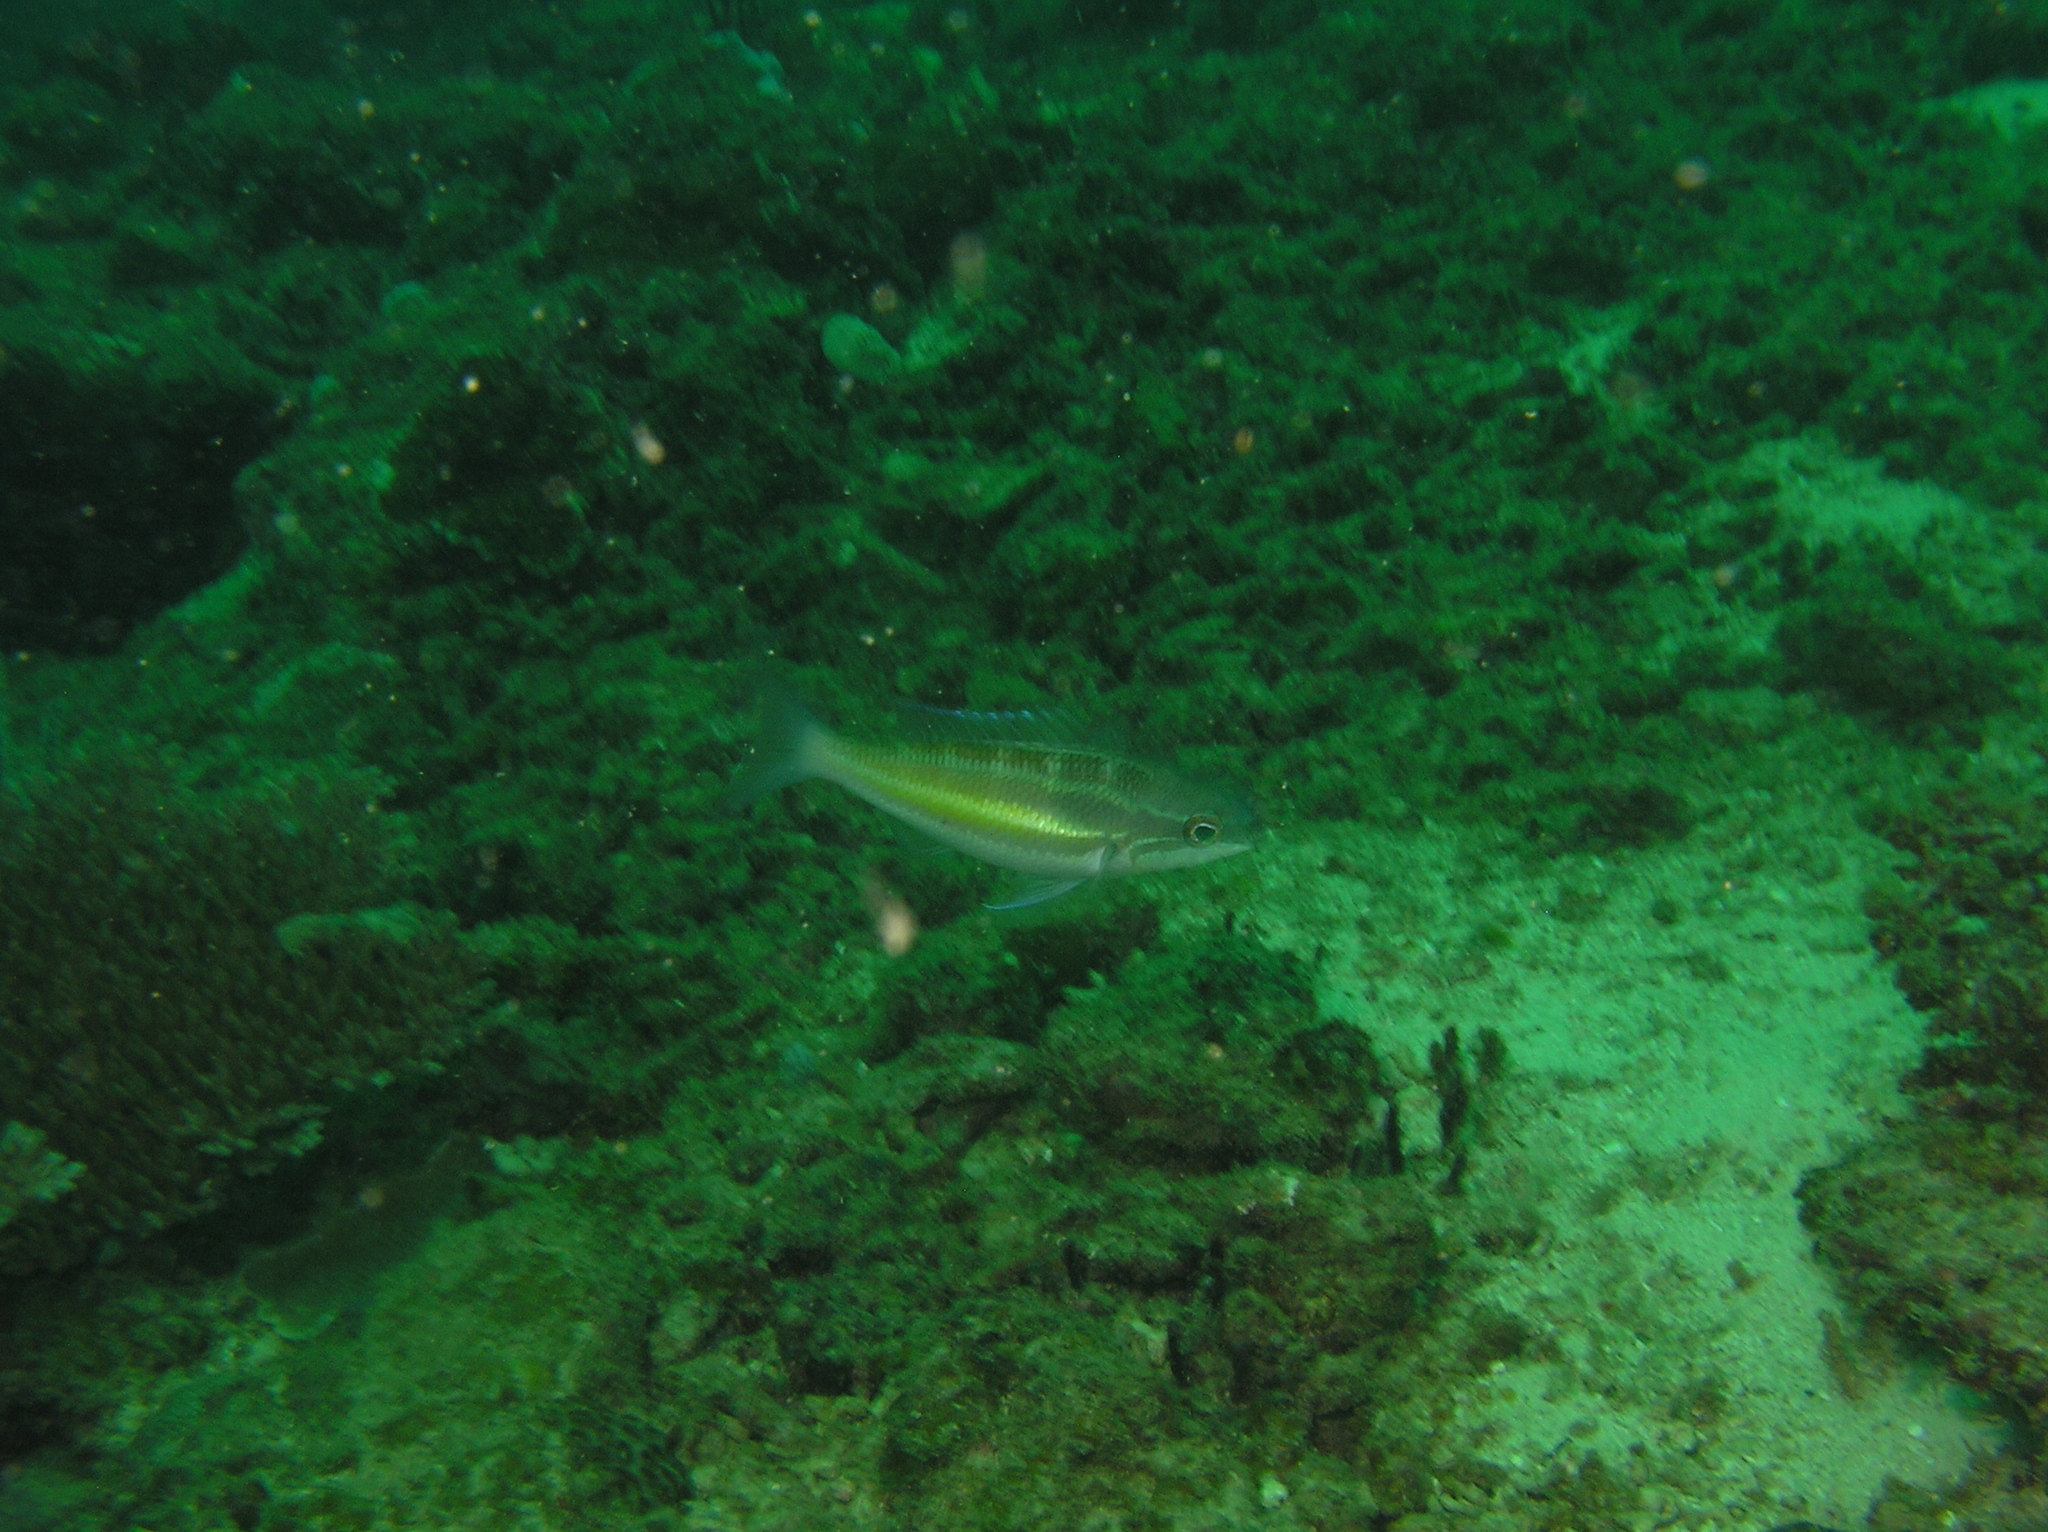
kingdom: Animalia
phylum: Chordata
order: Perciformes
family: Nemipteridae
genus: Pentapodus
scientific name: Pentapodus trivittatus
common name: Three-striped whiptail
